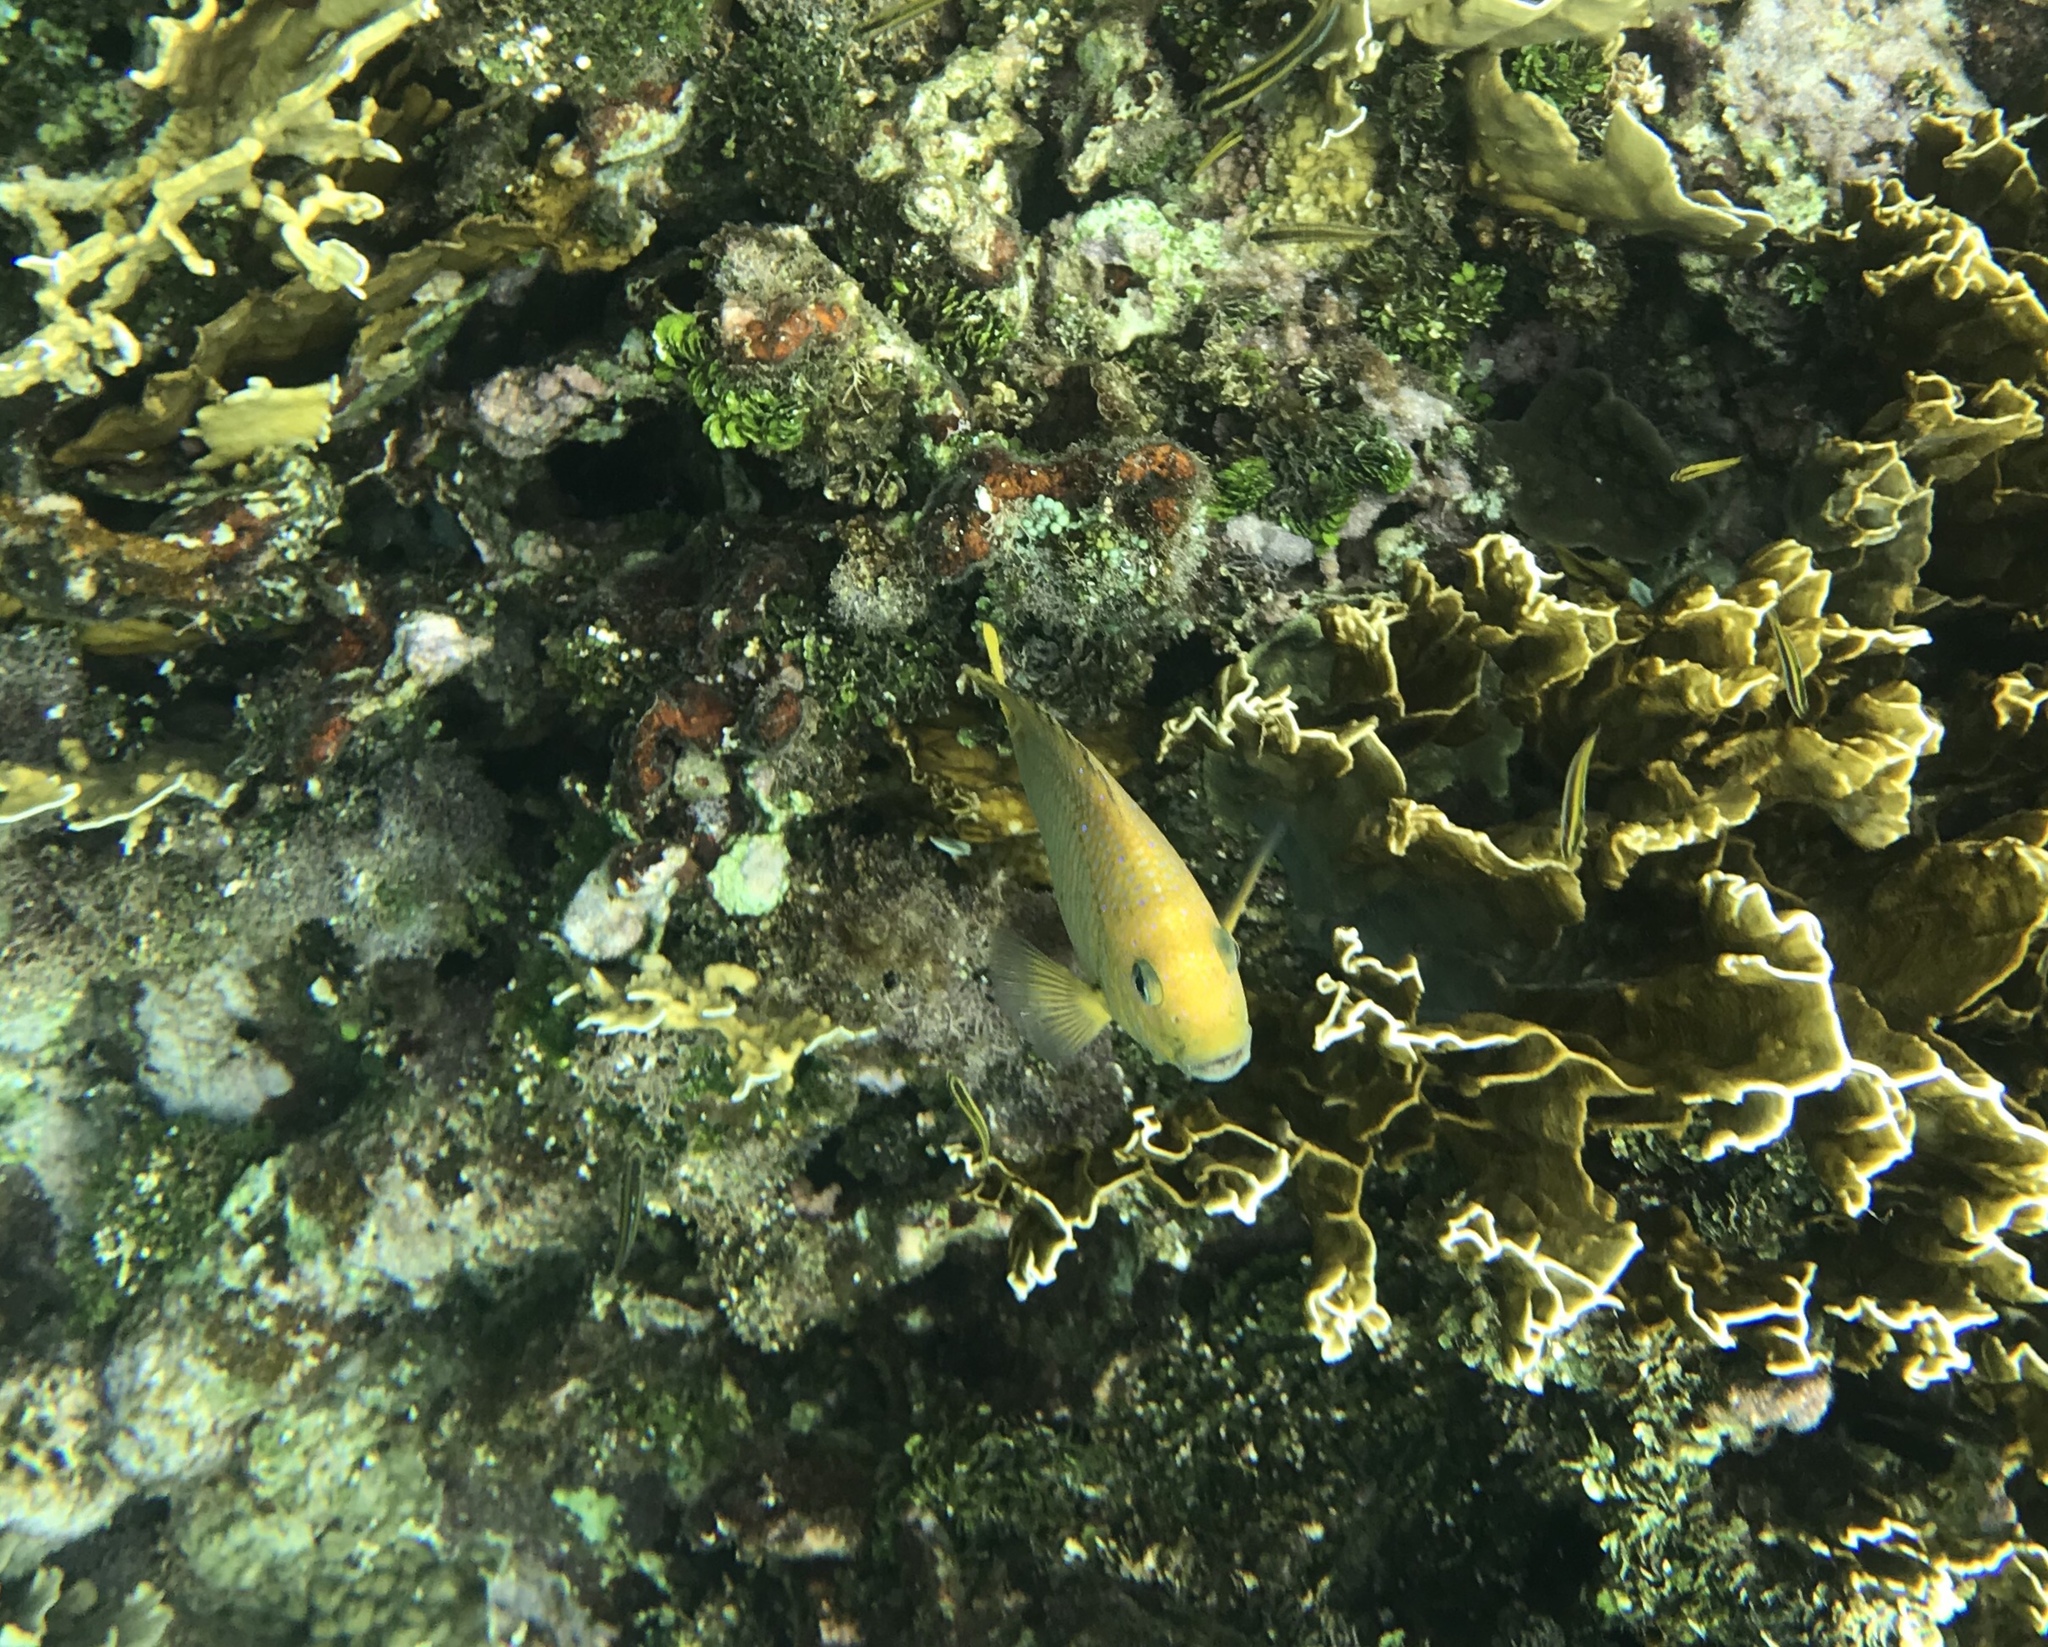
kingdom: Animalia
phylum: Chordata
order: Perciformes
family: Pomacentridae
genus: Microspathodon
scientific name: Microspathodon chrysurus
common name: Yellowtail damselfish
